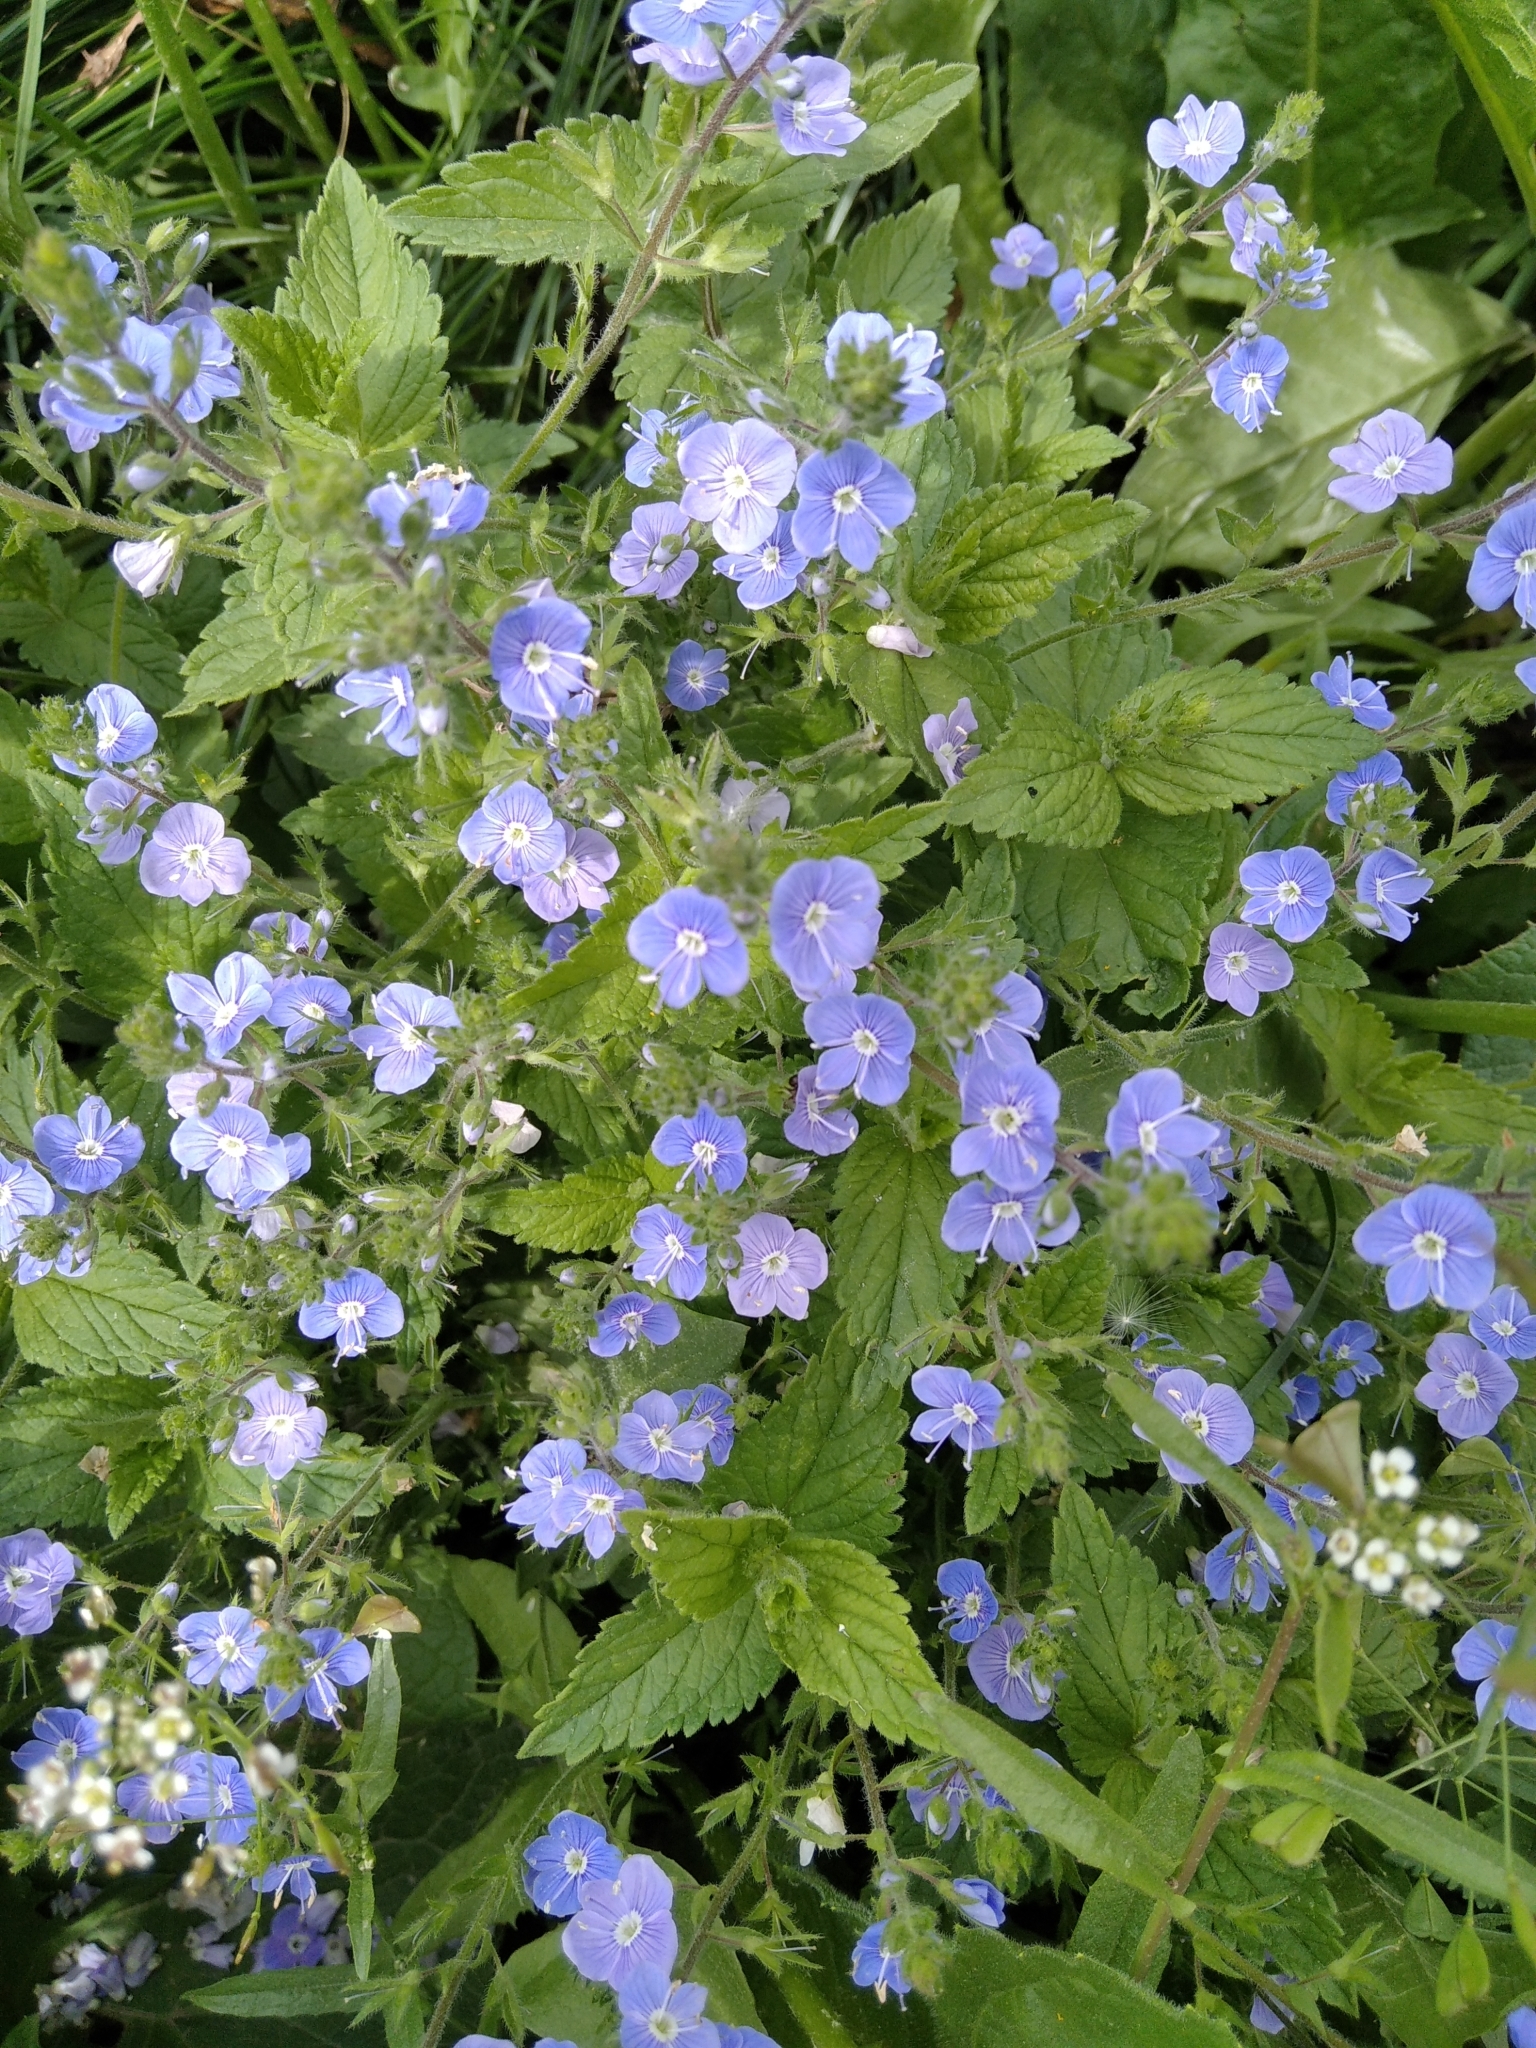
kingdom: Plantae
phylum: Tracheophyta
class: Magnoliopsida
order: Lamiales
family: Plantaginaceae
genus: Veronica
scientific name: Veronica chamaedrys
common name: Germander speedwell
